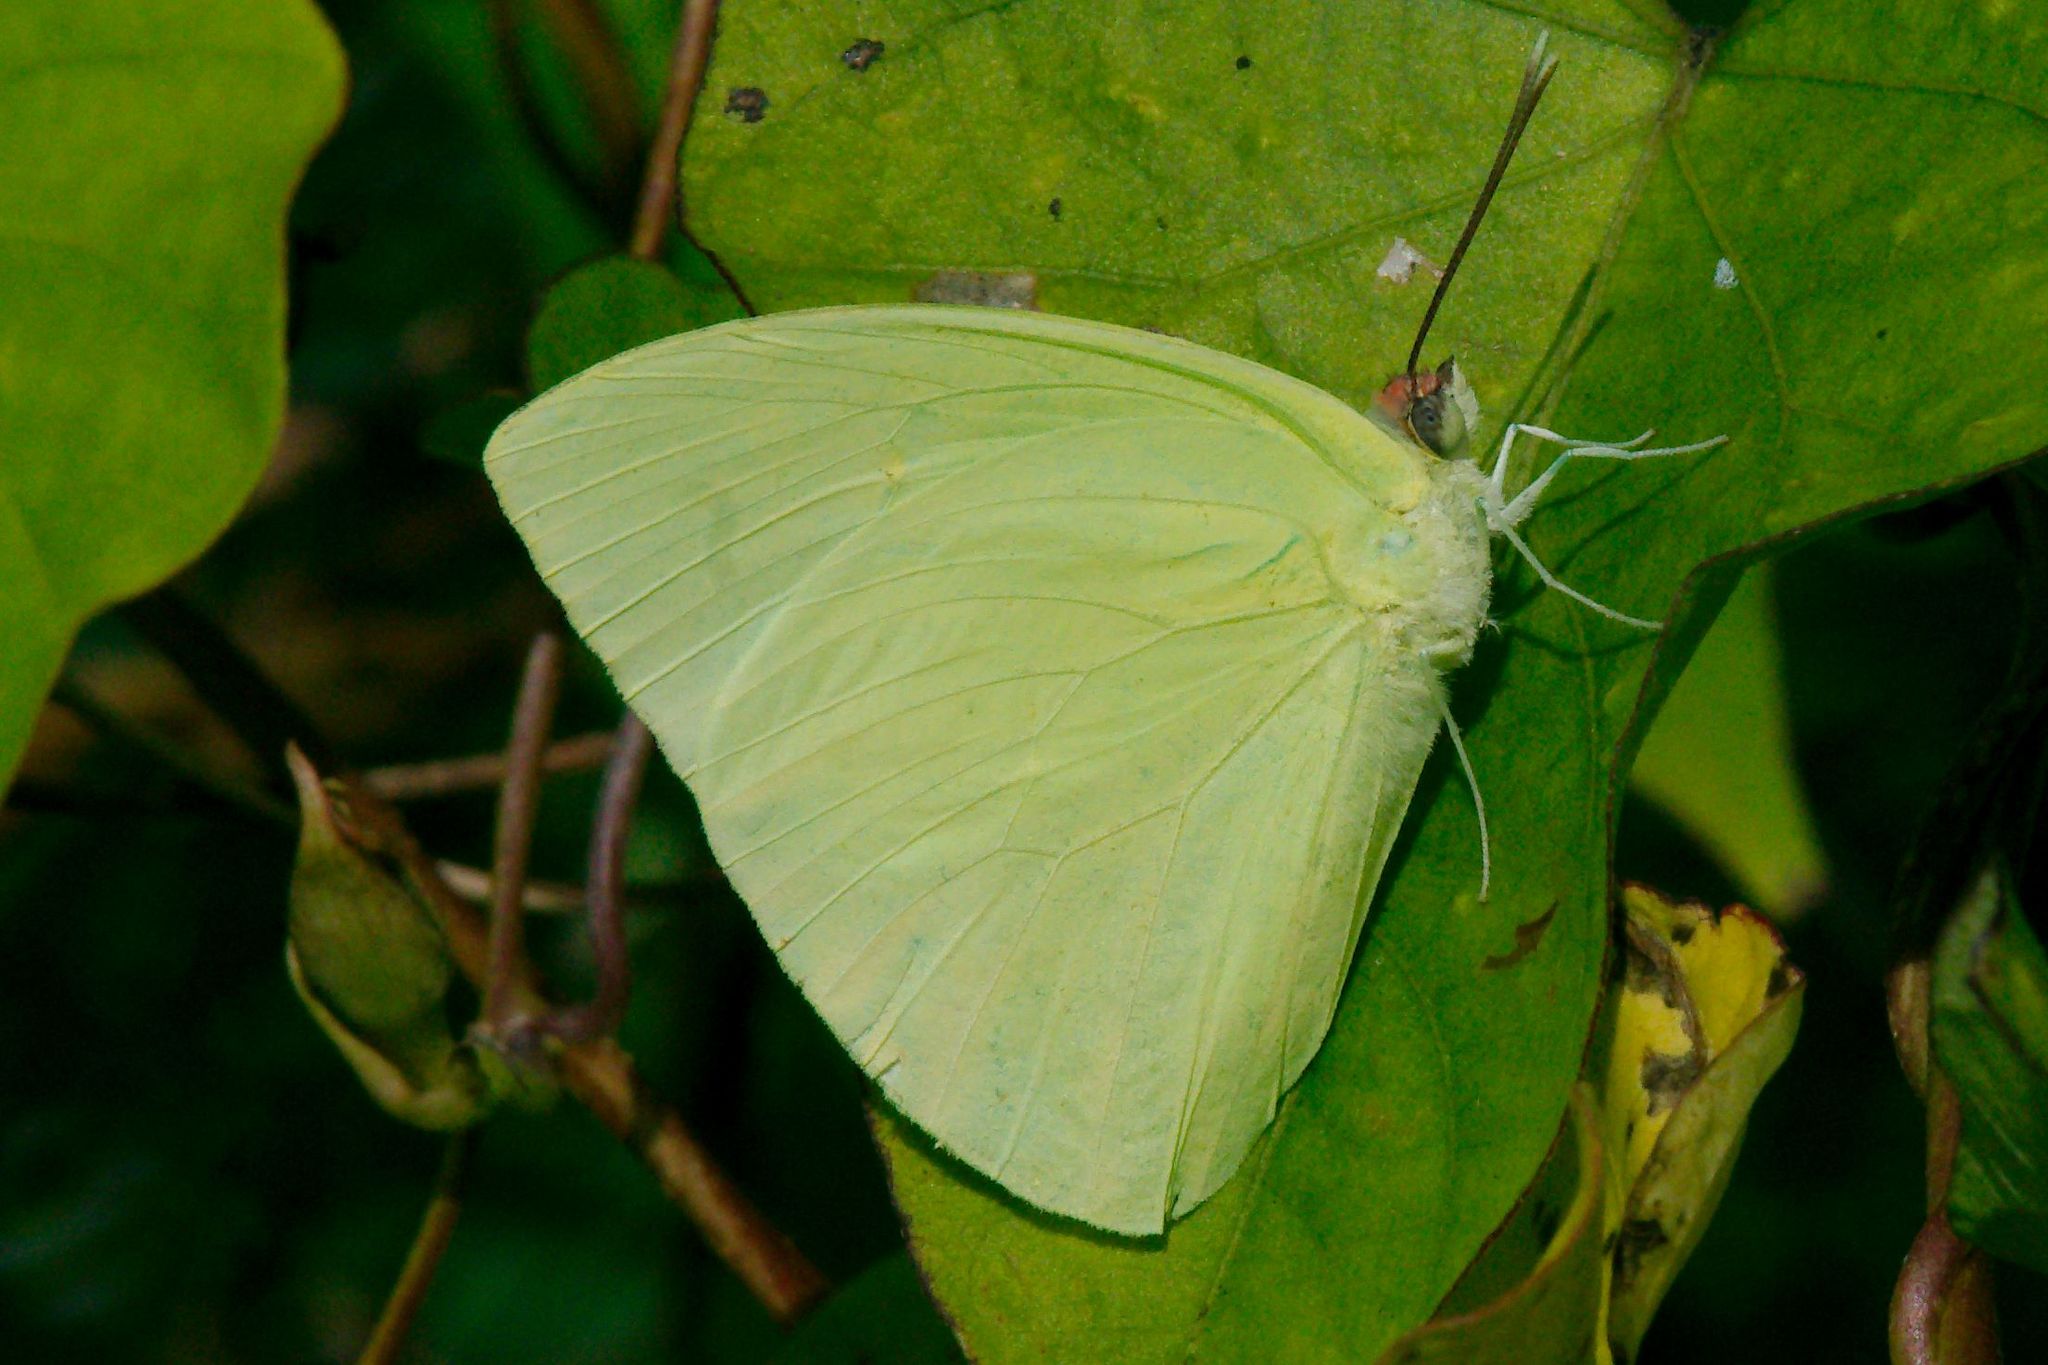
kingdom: Animalia
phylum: Arthropoda
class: Insecta
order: Lepidoptera
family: Pieridae
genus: Aphrissa
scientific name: Aphrissa statira
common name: Statira sulphur
